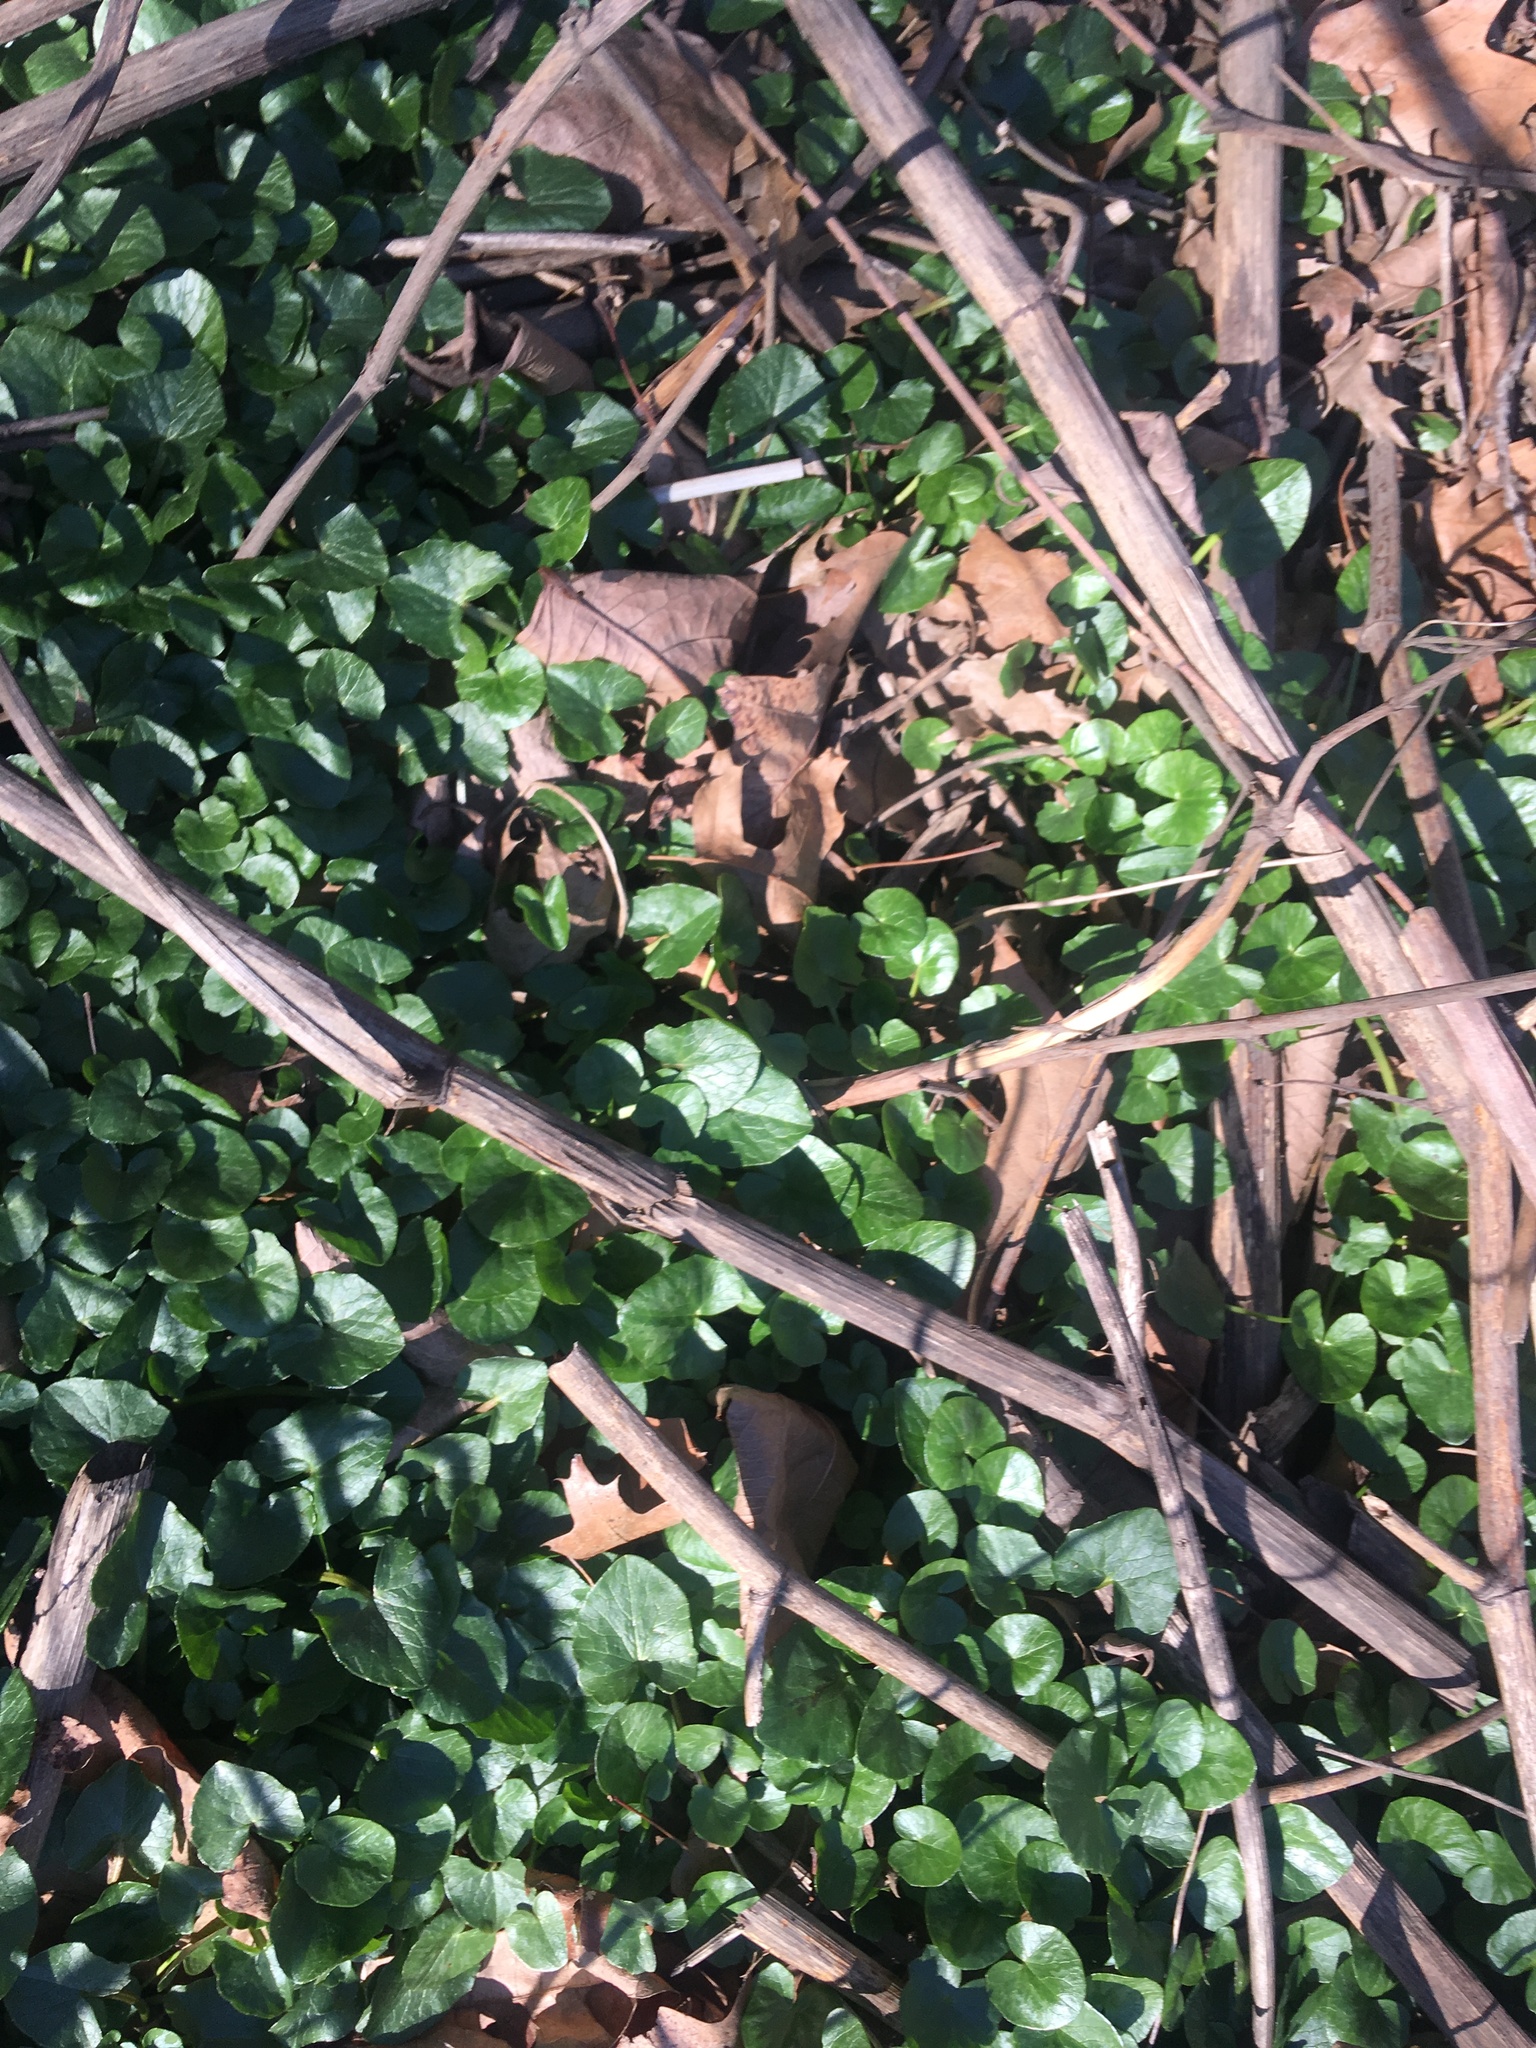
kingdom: Plantae
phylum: Tracheophyta
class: Magnoliopsida
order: Ranunculales
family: Ranunculaceae
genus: Ficaria
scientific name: Ficaria verna
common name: Lesser celandine
